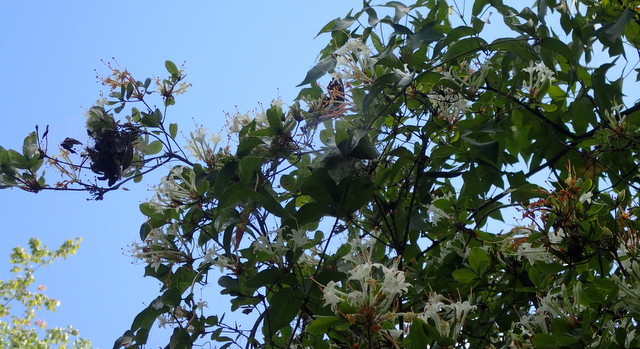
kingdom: Plantae
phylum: Tracheophyta
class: Magnoliopsida
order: Ericales
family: Ericaceae
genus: Rhododendron
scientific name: Rhododendron serrulatum
